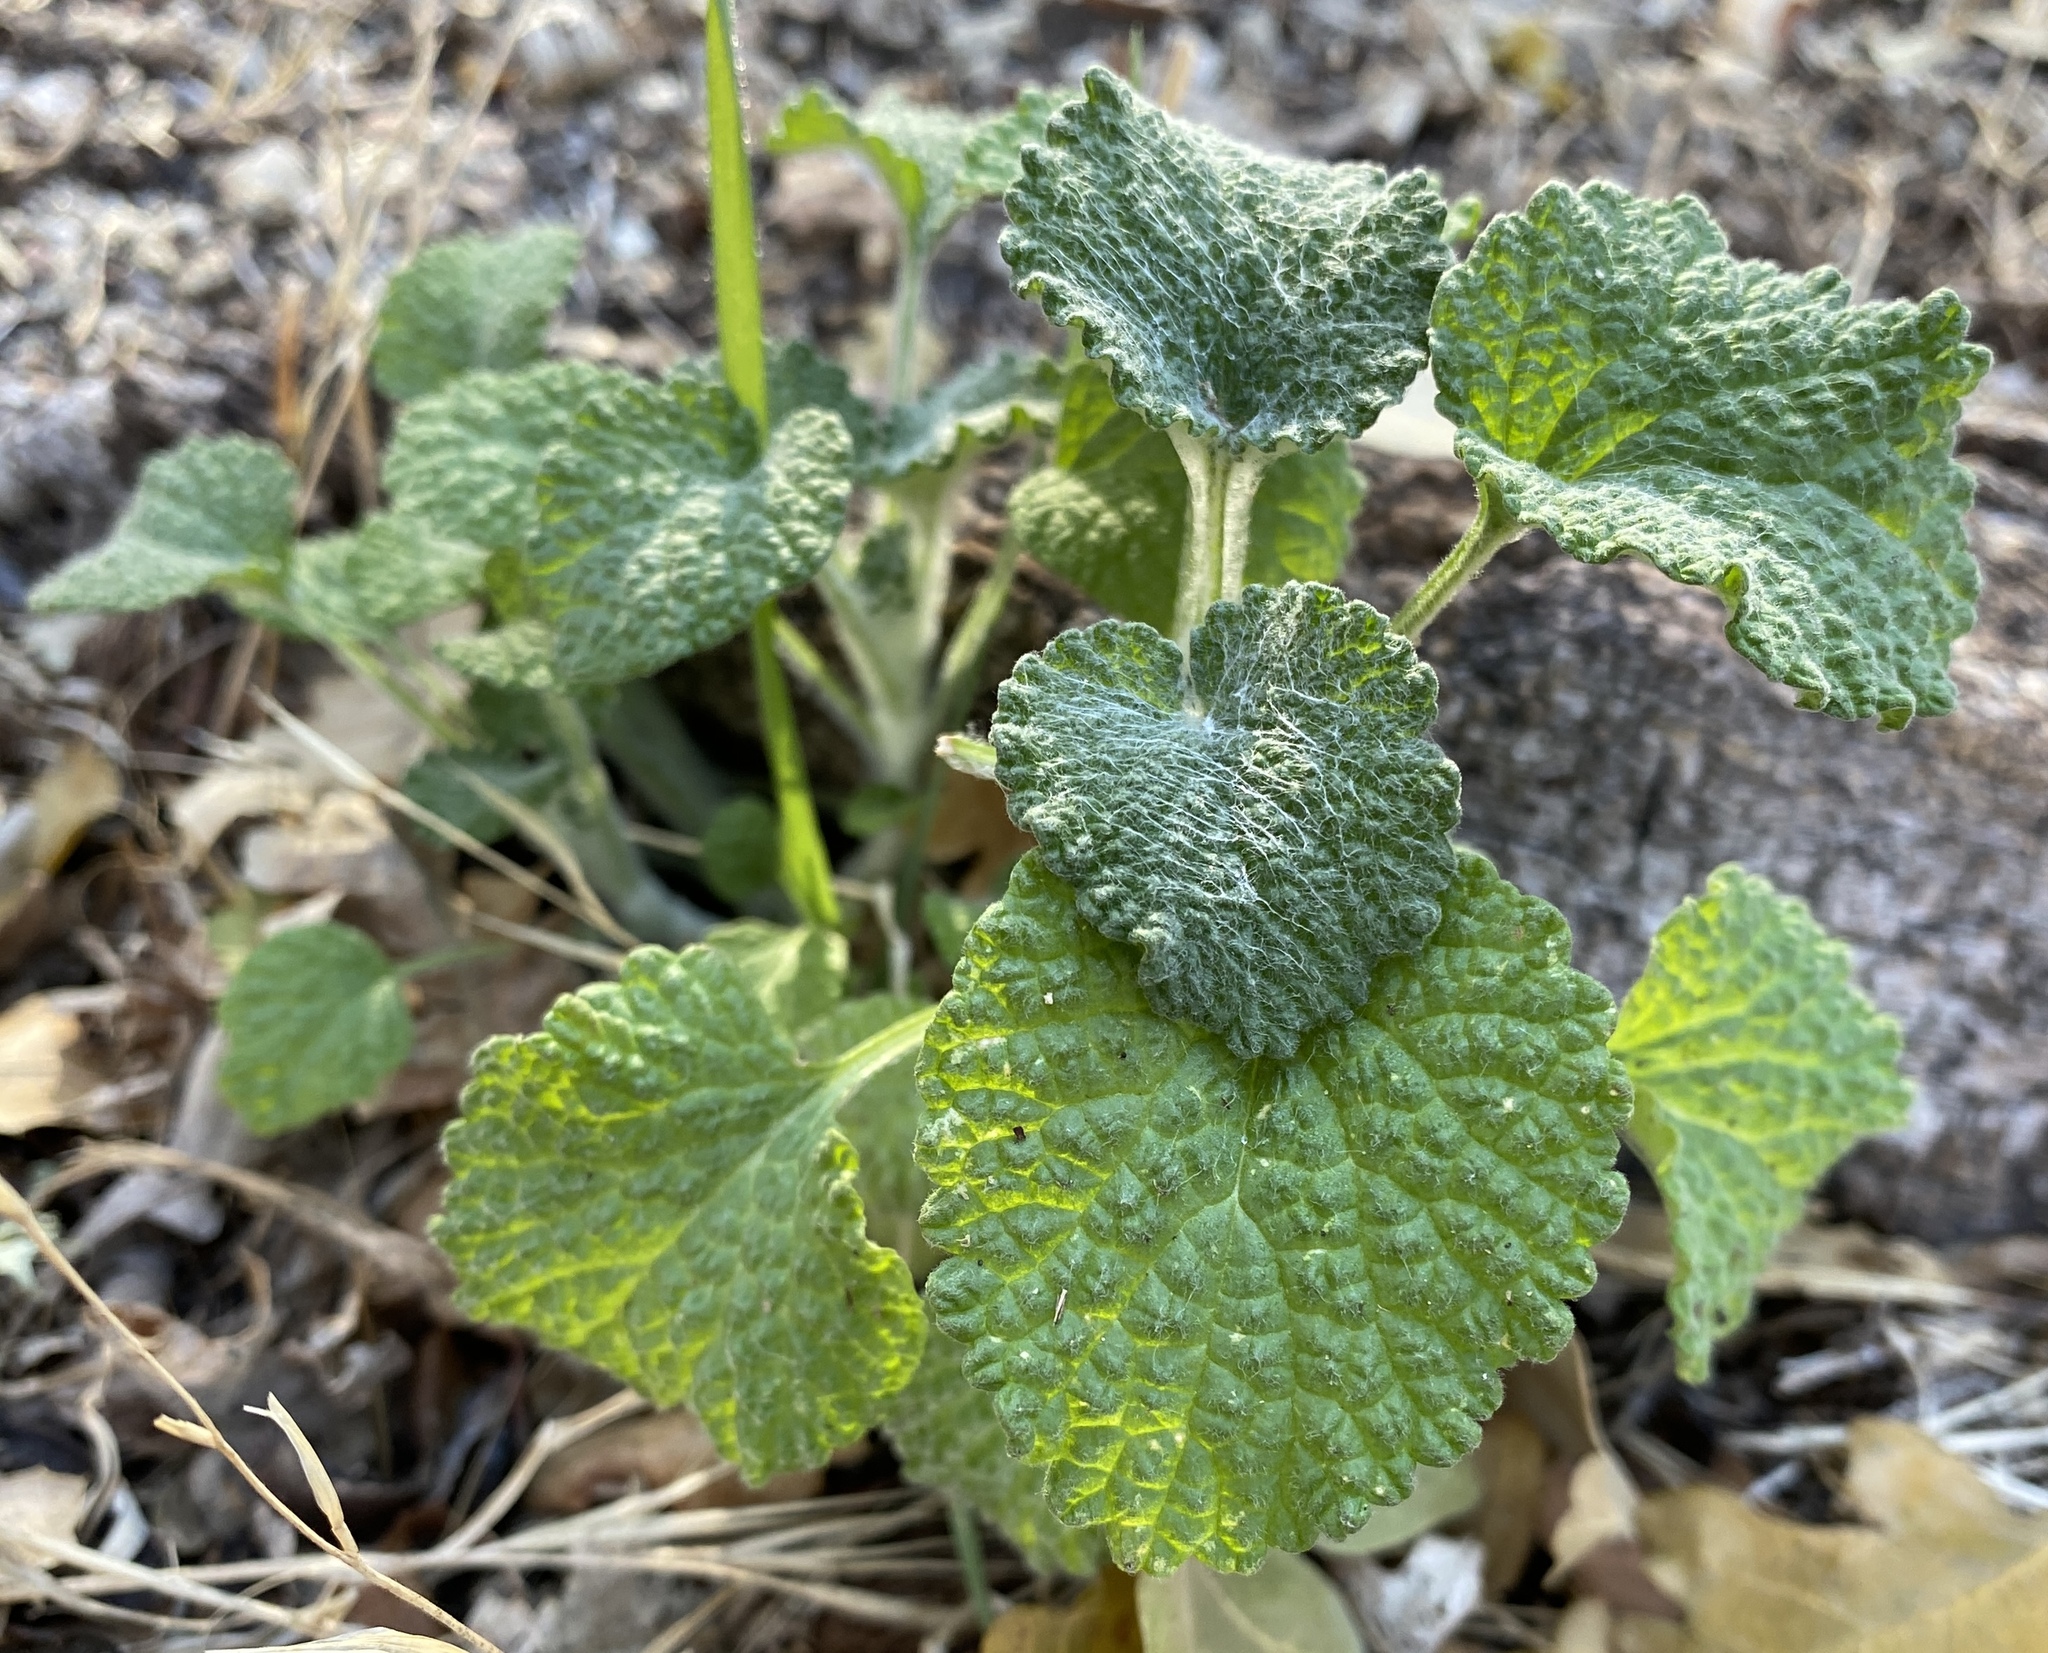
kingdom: Plantae
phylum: Tracheophyta
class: Magnoliopsida
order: Lamiales
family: Lamiaceae
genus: Marrubium
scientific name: Marrubium vulgare
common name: Horehound
